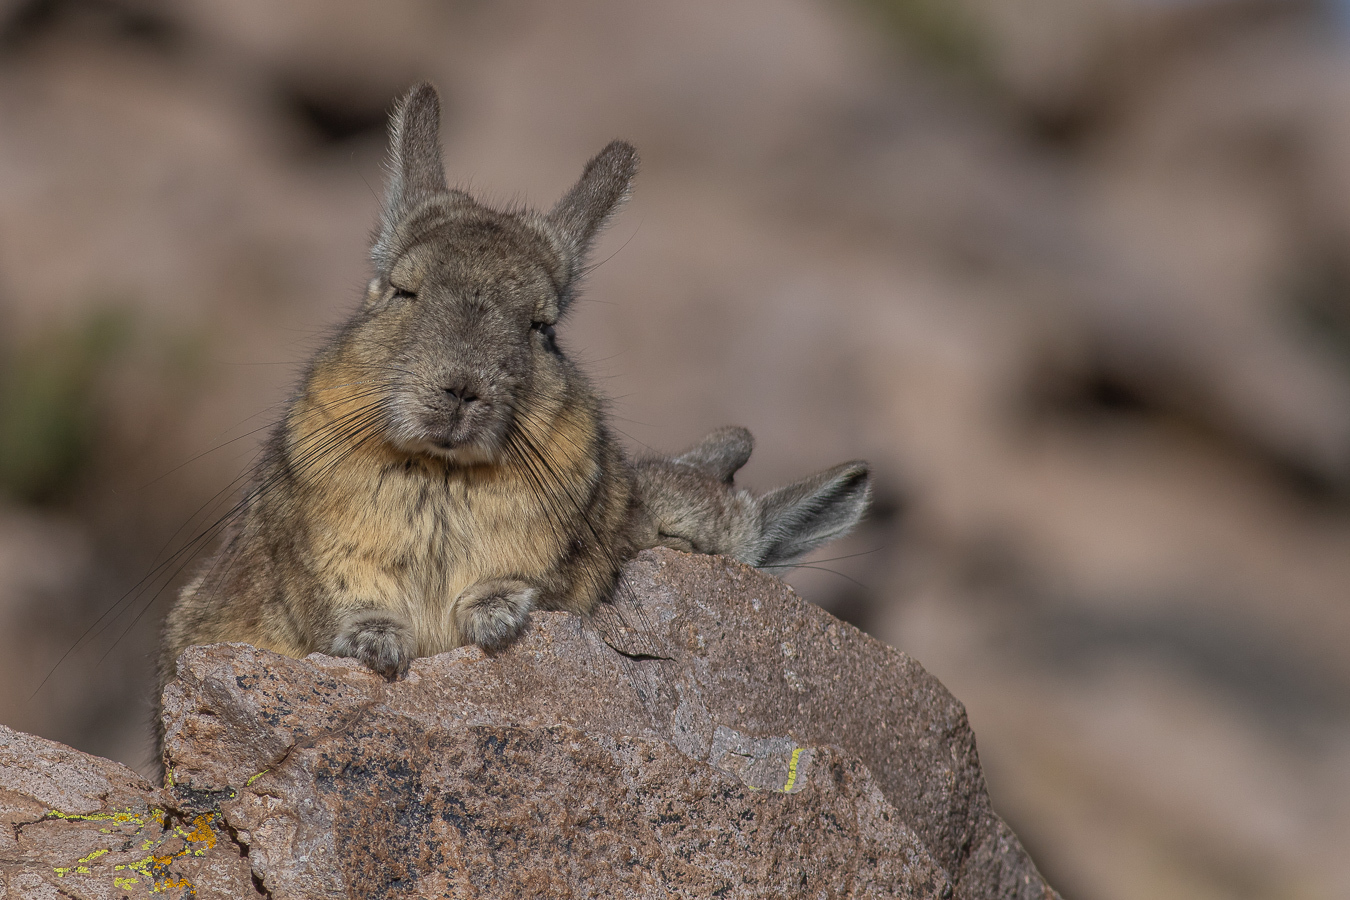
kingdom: Animalia
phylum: Chordata
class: Mammalia
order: Rodentia
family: Chinchillidae
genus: Lagidium
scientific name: Lagidium viscacia
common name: Southern viscacha
